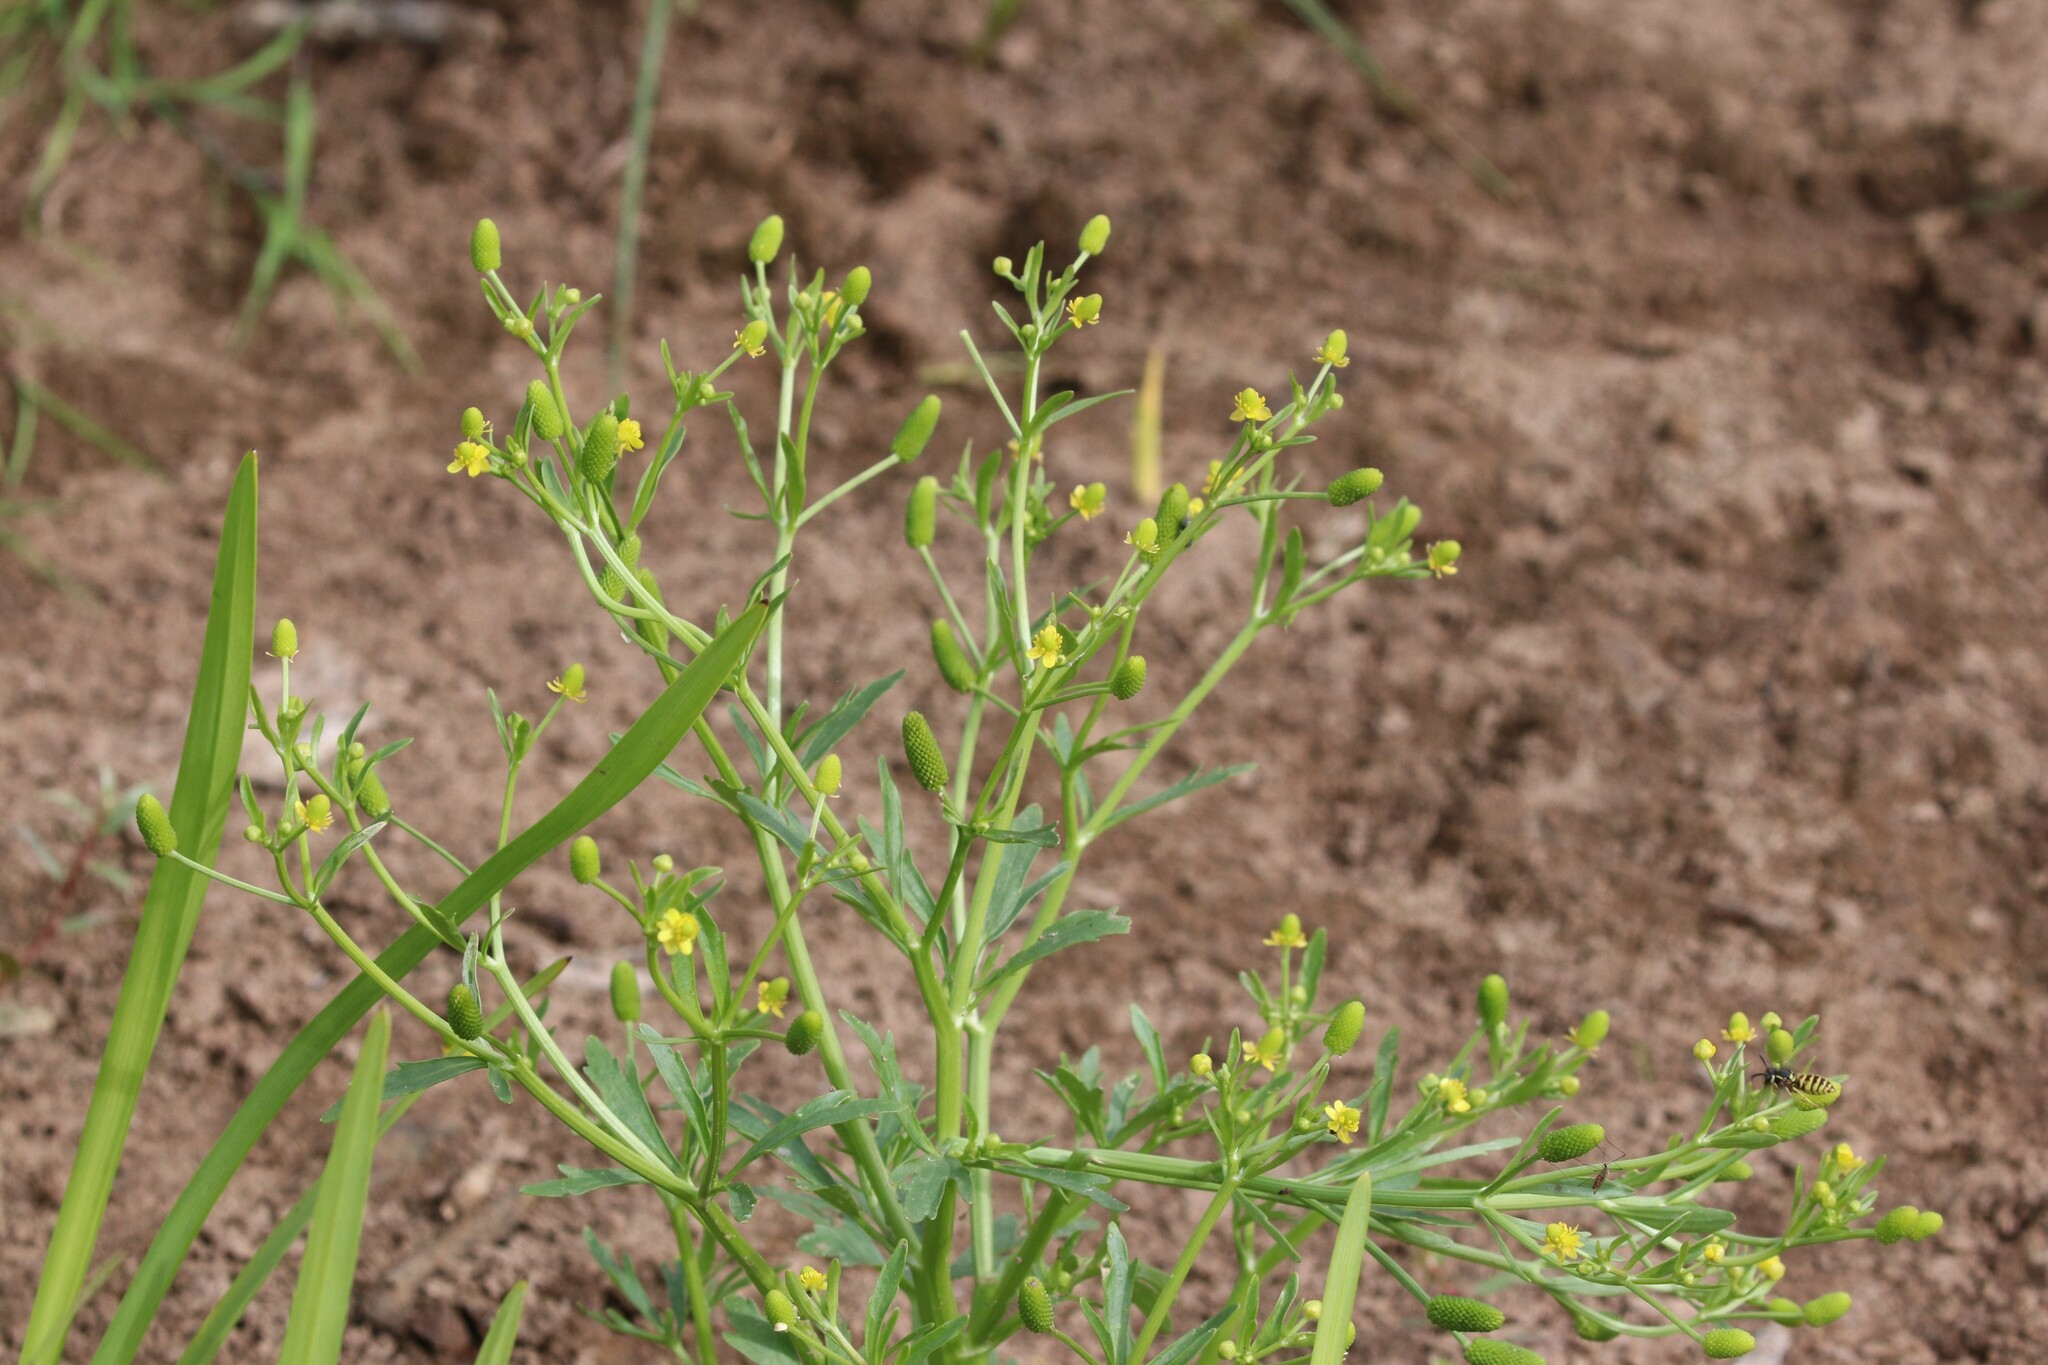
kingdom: Plantae
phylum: Tracheophyta
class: Magnoliopsida
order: Ranunculales
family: Ranunculaceae
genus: Ranunculus
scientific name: Ranunculus sceleratus
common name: Celery-leaved buttercup
